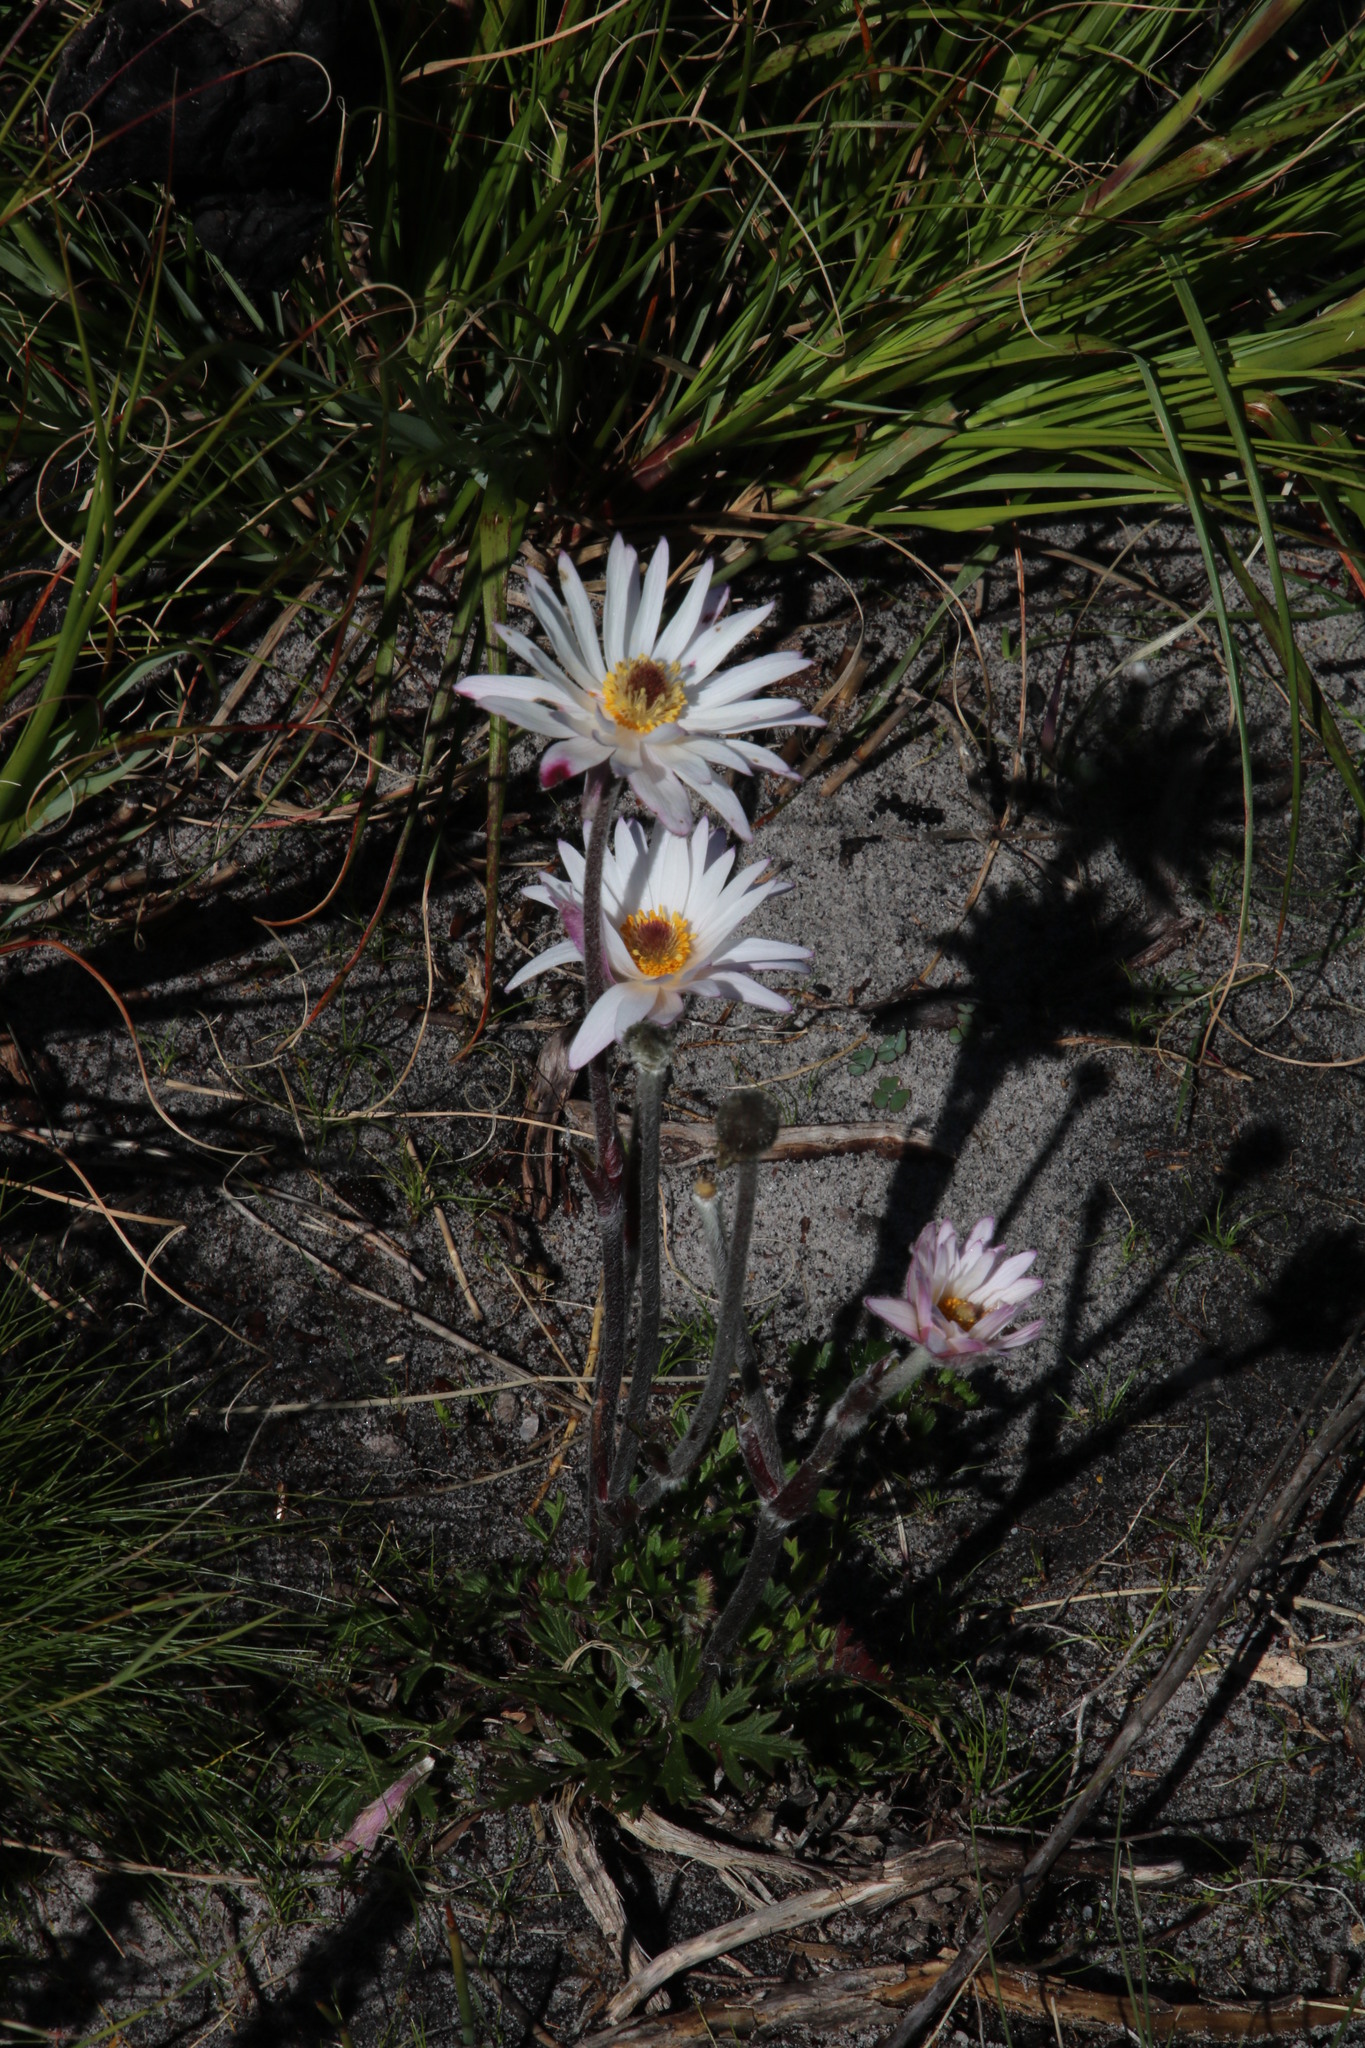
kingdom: Plantae
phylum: Tracheophyta
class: Magnoliopsida
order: Ranunculales
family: Ranunculaceae
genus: Knowltonia
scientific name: Knowltonia tenuifolia
